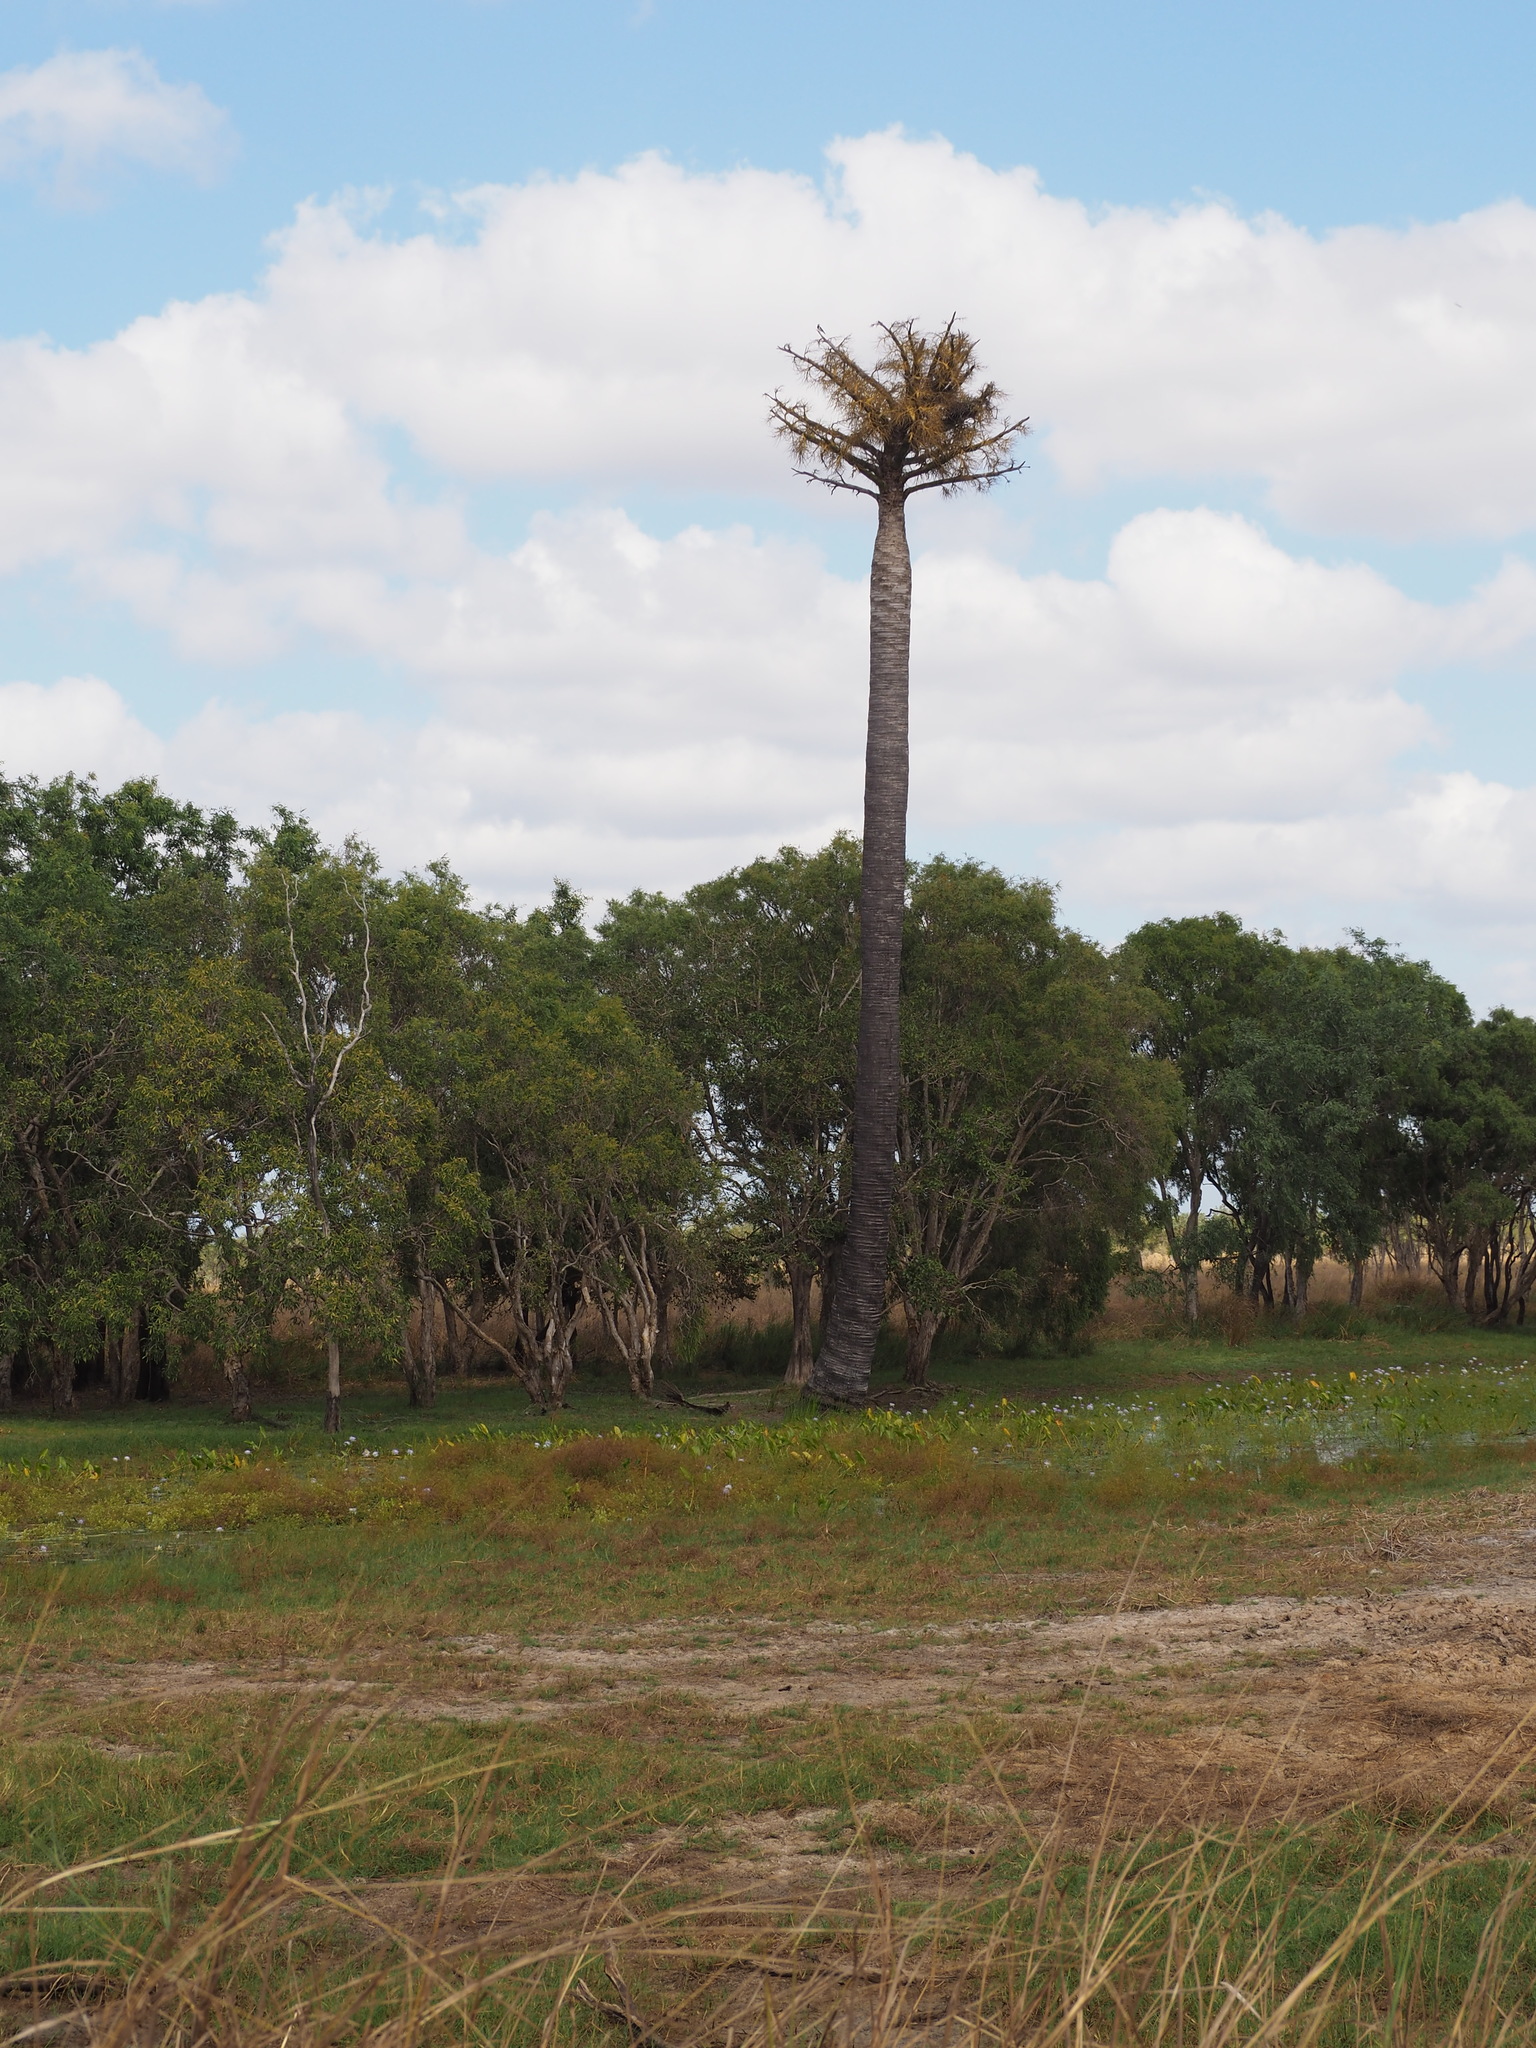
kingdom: Plantae
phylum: Tracheophyta
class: Liliopsida
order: Arecales
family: Arecaceae
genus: Corypha
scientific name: Corypha utan
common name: Buri palm
